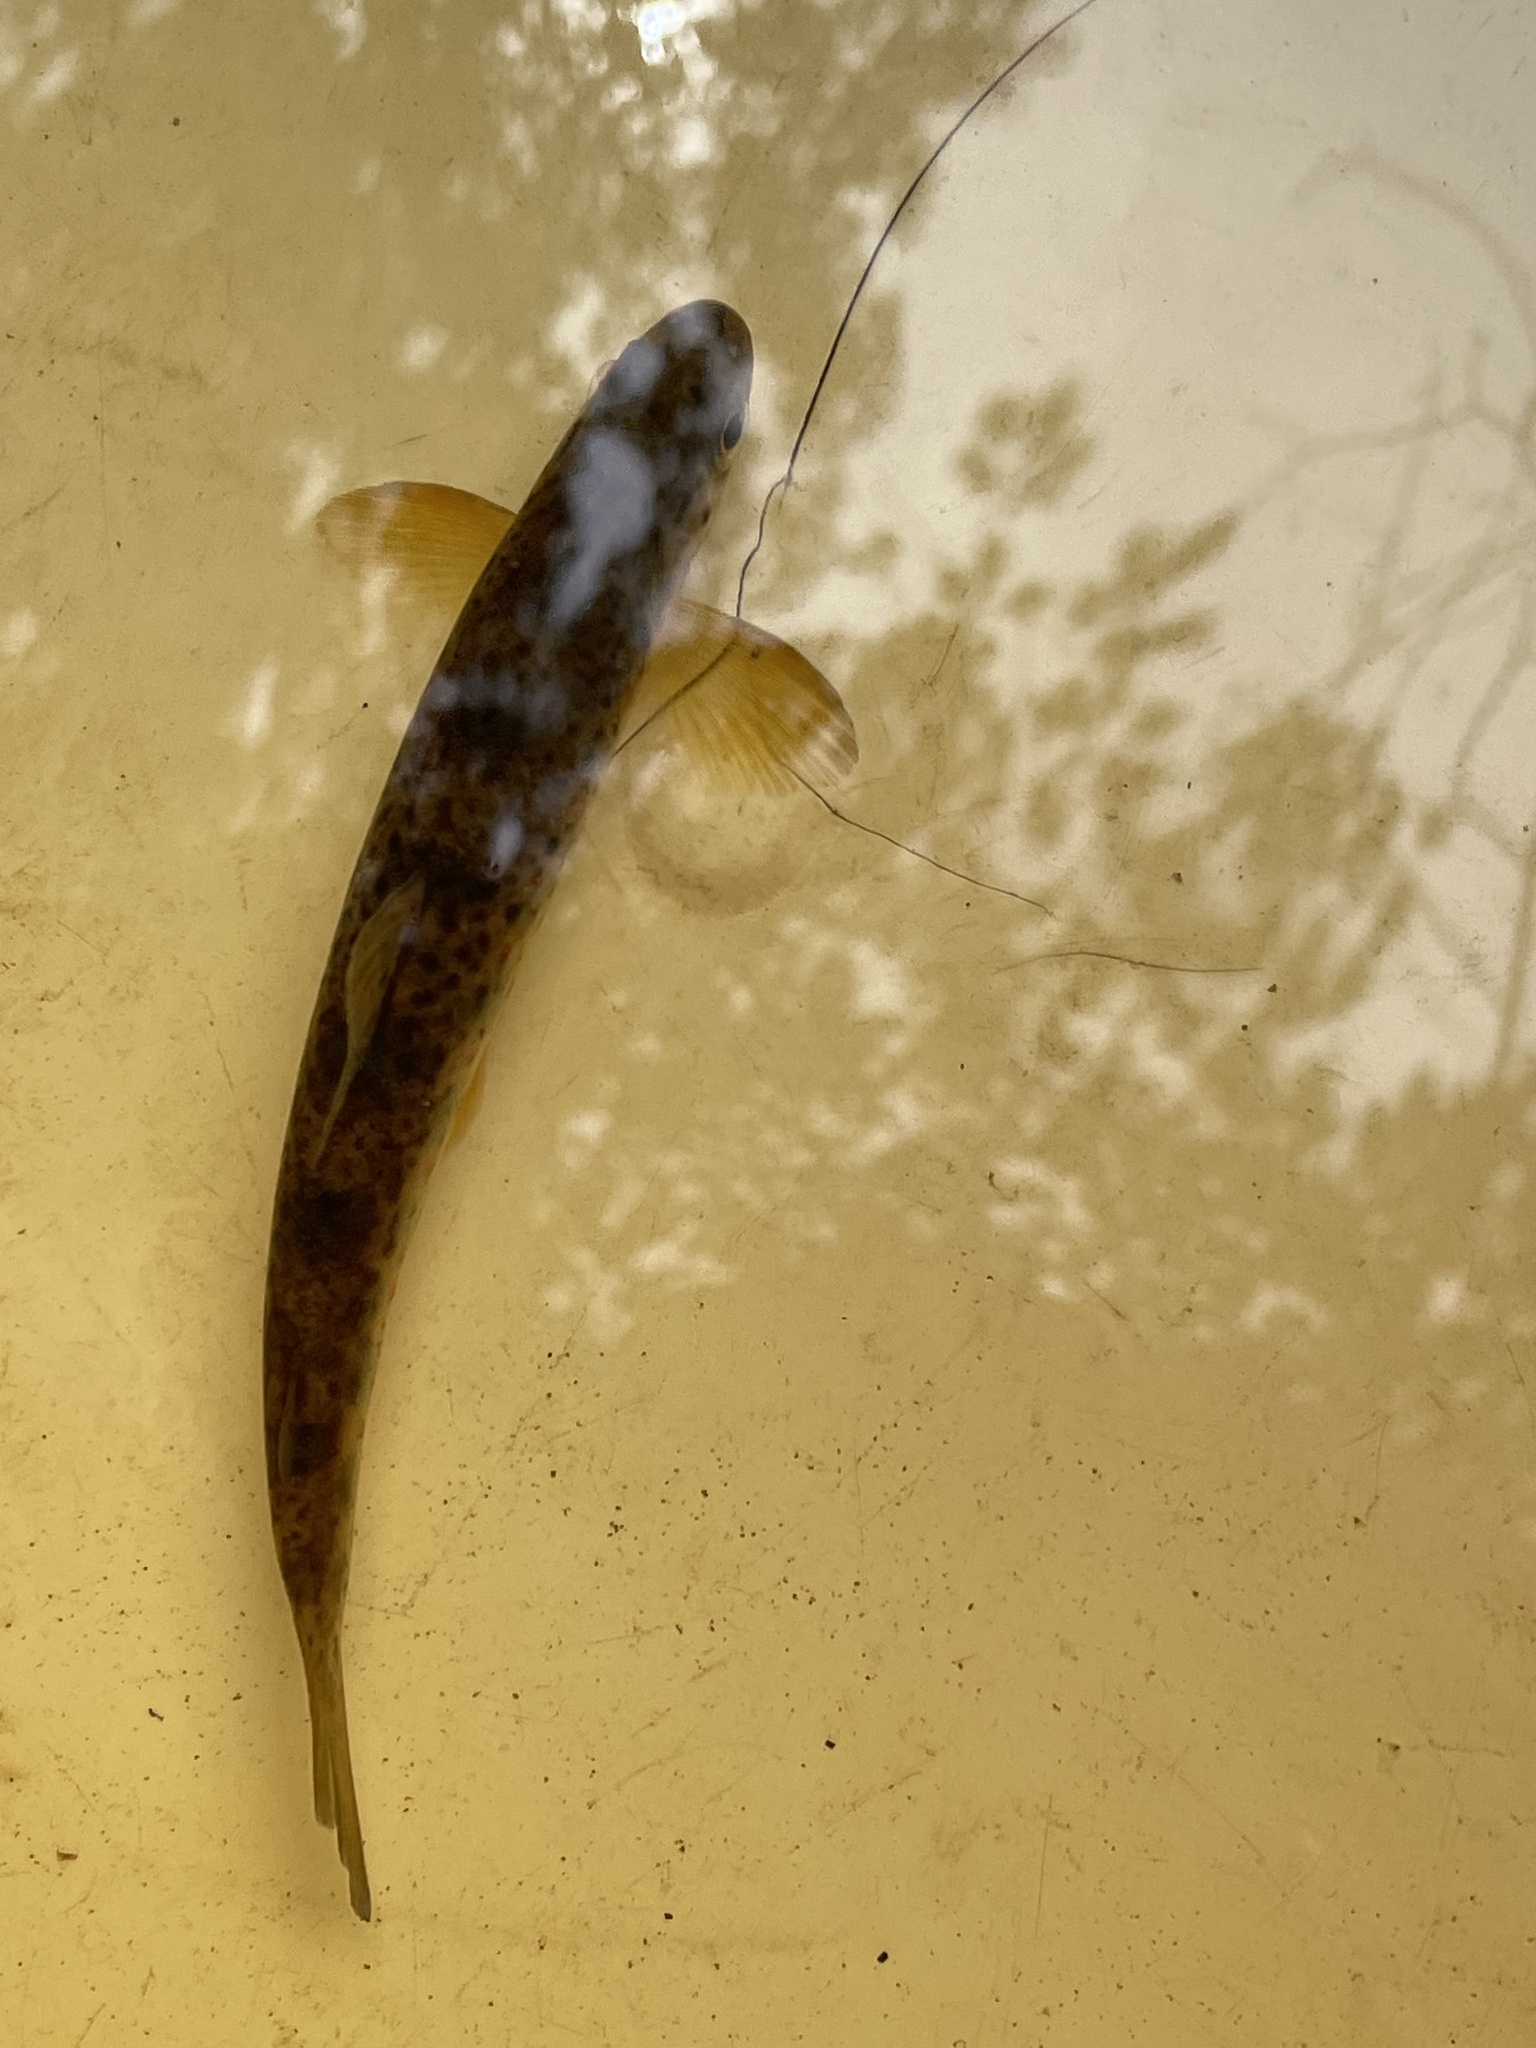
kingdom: Animalia
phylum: Chordata
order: Salmoniformes
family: Salmonidae
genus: Salmo
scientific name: Salmo salar
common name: Atlantic salmon
